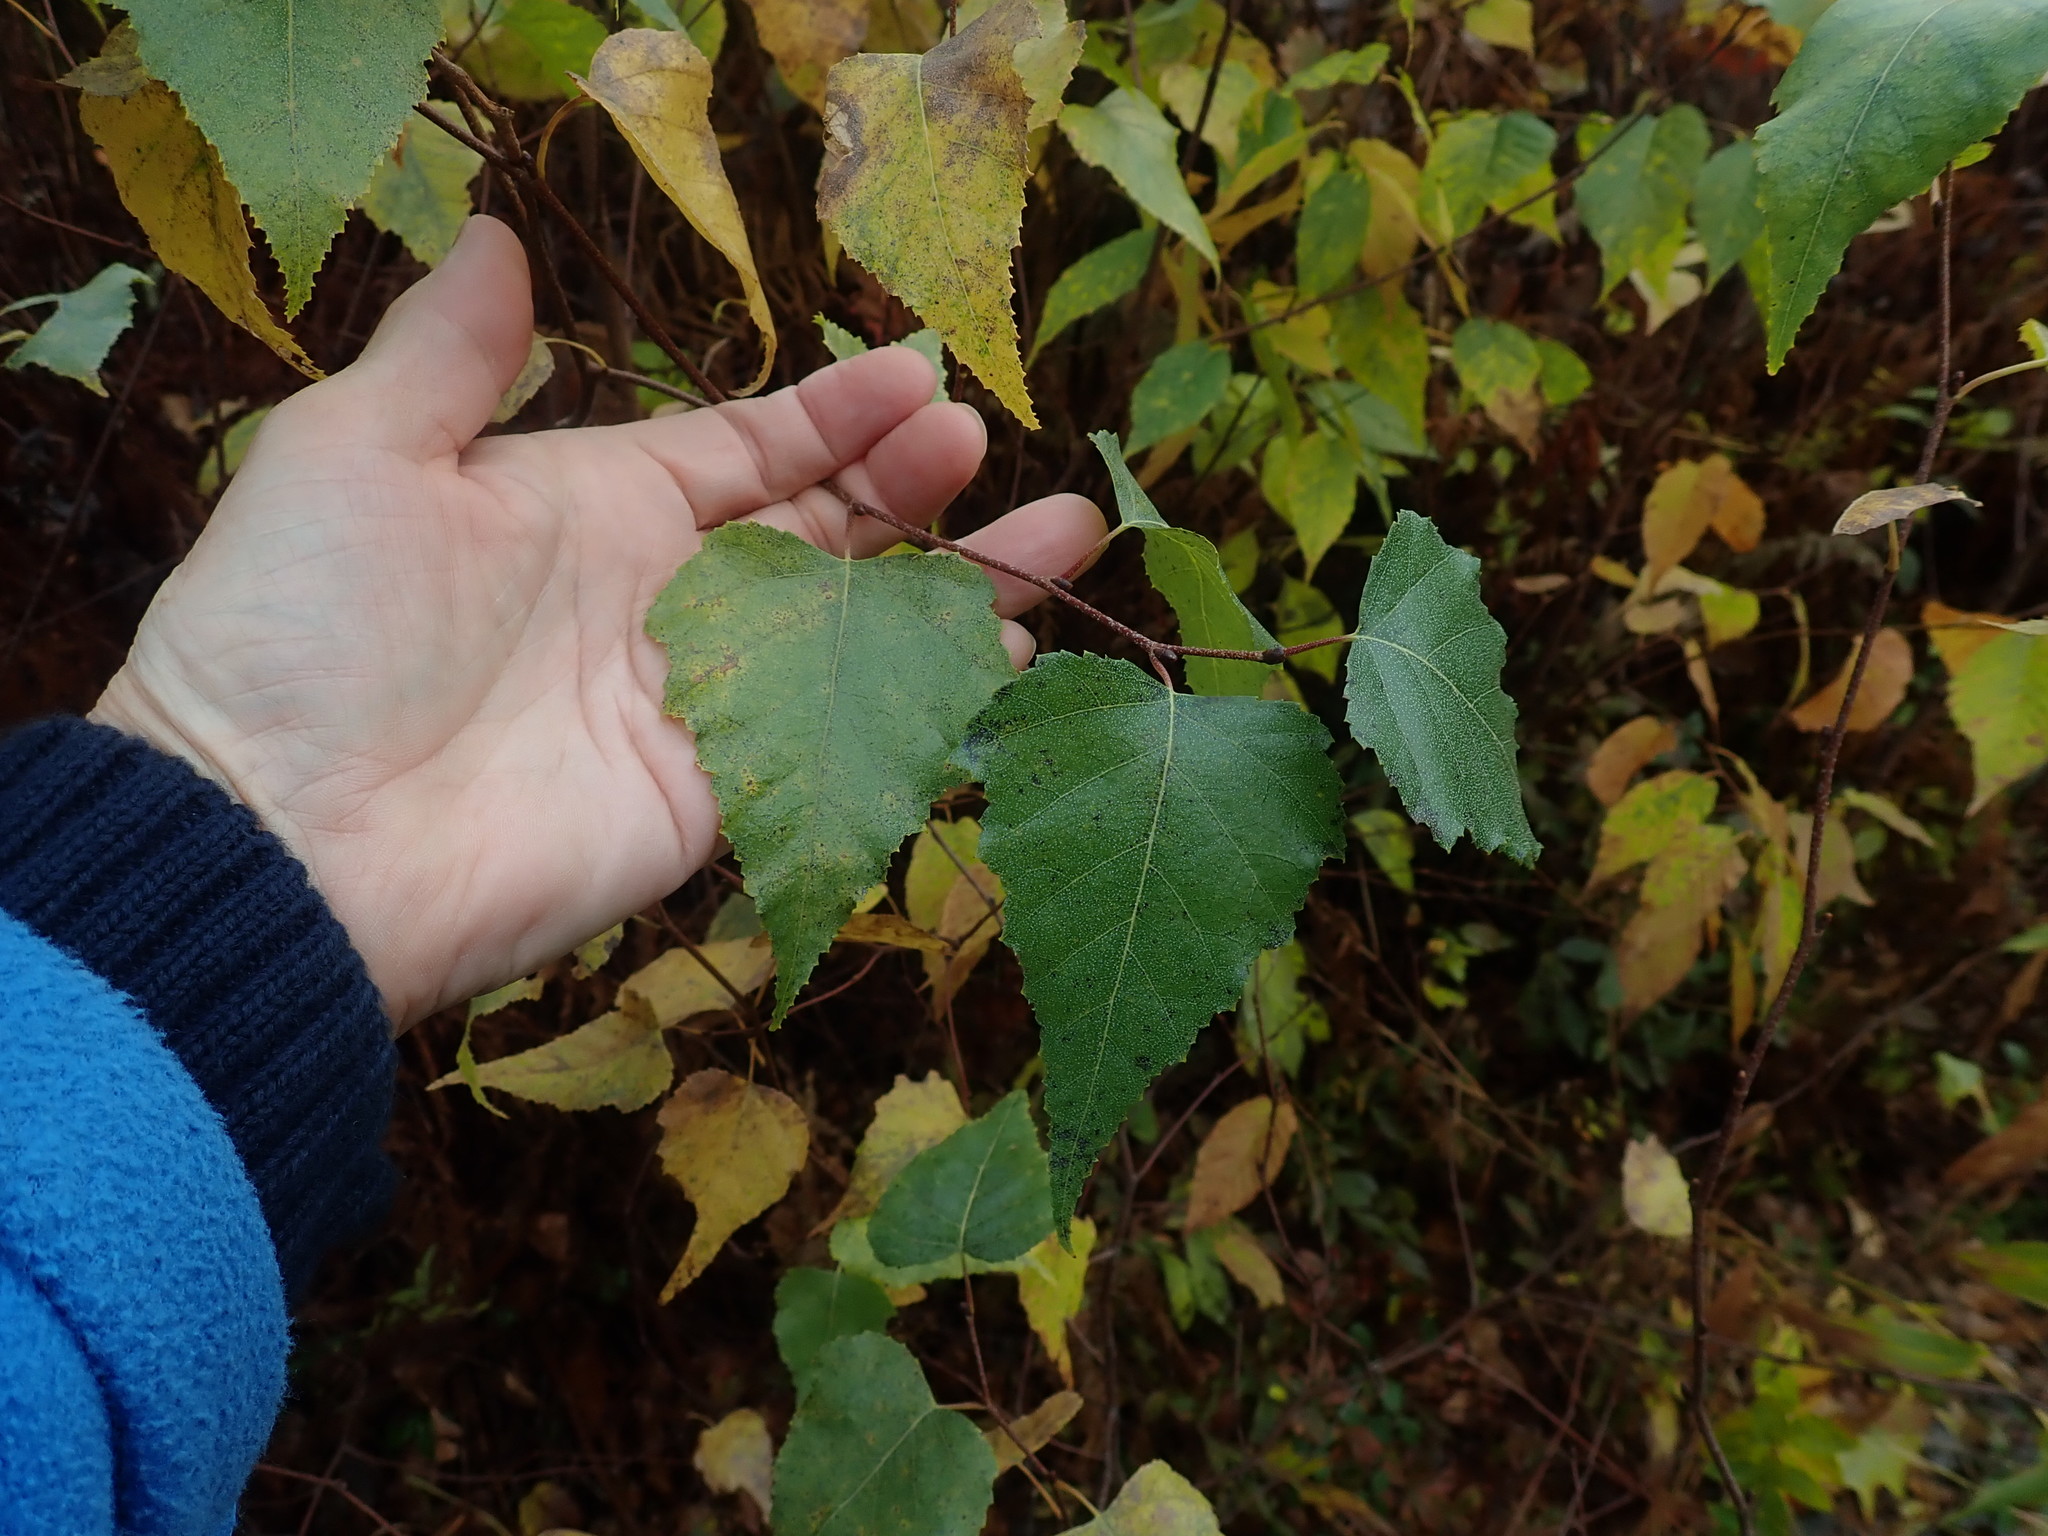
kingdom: Plantae
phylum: Tracheophyta
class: Magnoliopsida
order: Fagales
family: Betulaceae
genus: Betula
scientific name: Betula populifolia
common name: Fire birch
